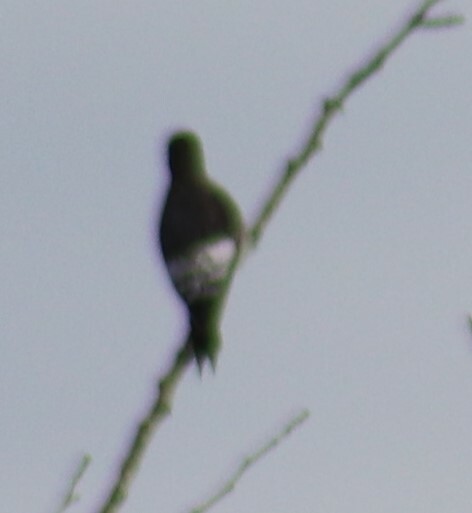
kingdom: Animalia
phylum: Chordata
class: Aves
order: Piciformes
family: Picidae
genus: Melanerpes
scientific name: Melanerpes erythrocephalus
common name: Red-headed woodpecker
